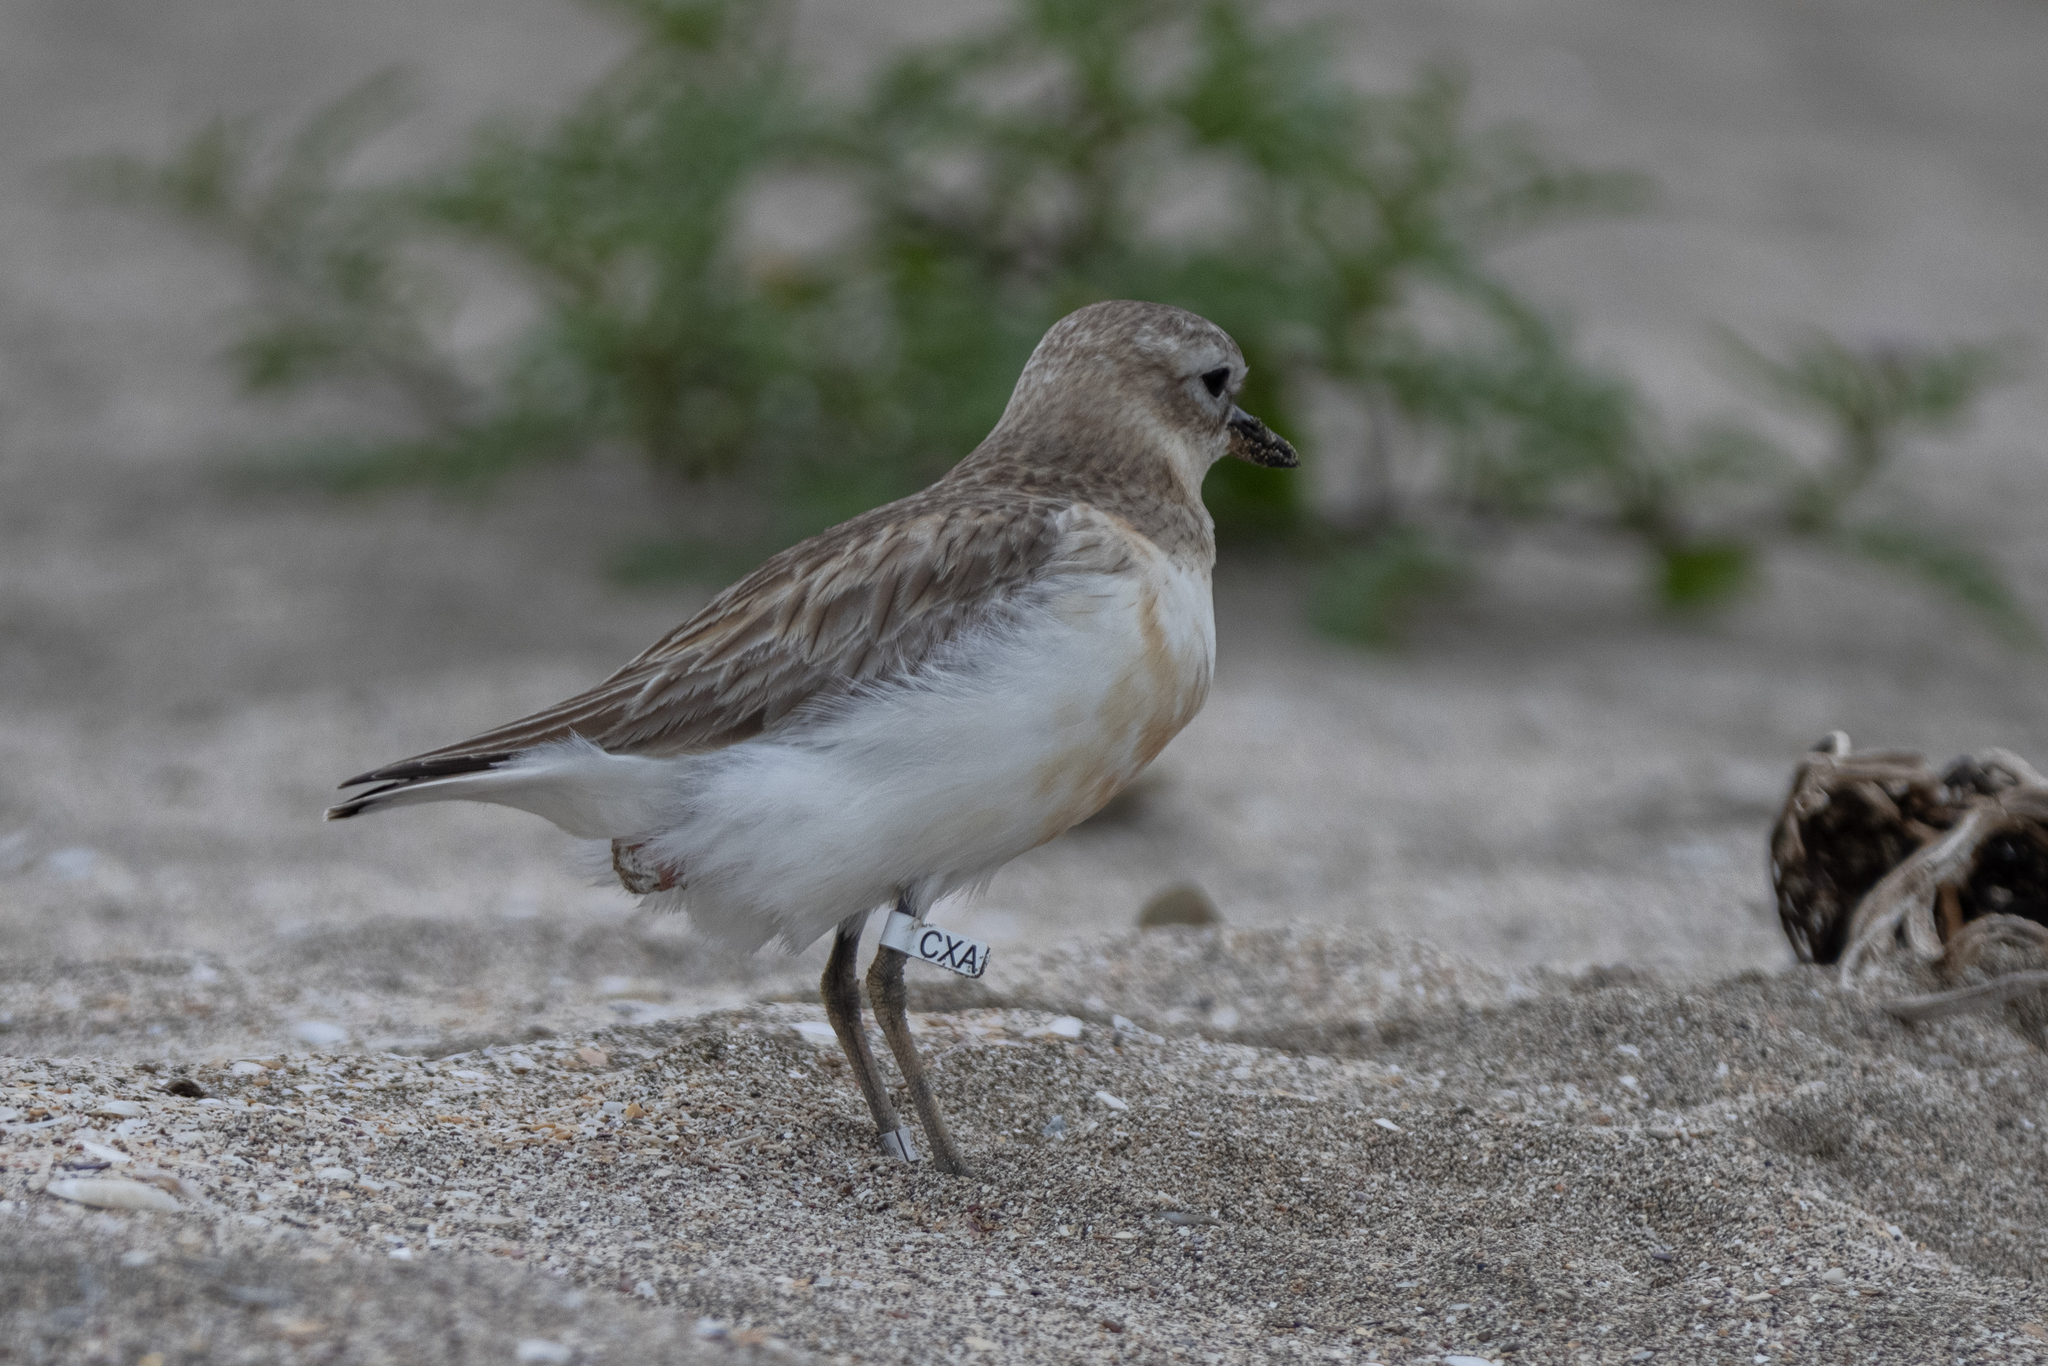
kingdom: Animalia
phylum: Chordata
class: Aves
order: Charadriiformes
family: Charadriidae
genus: Anarhynchus
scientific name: Anarhynchus
